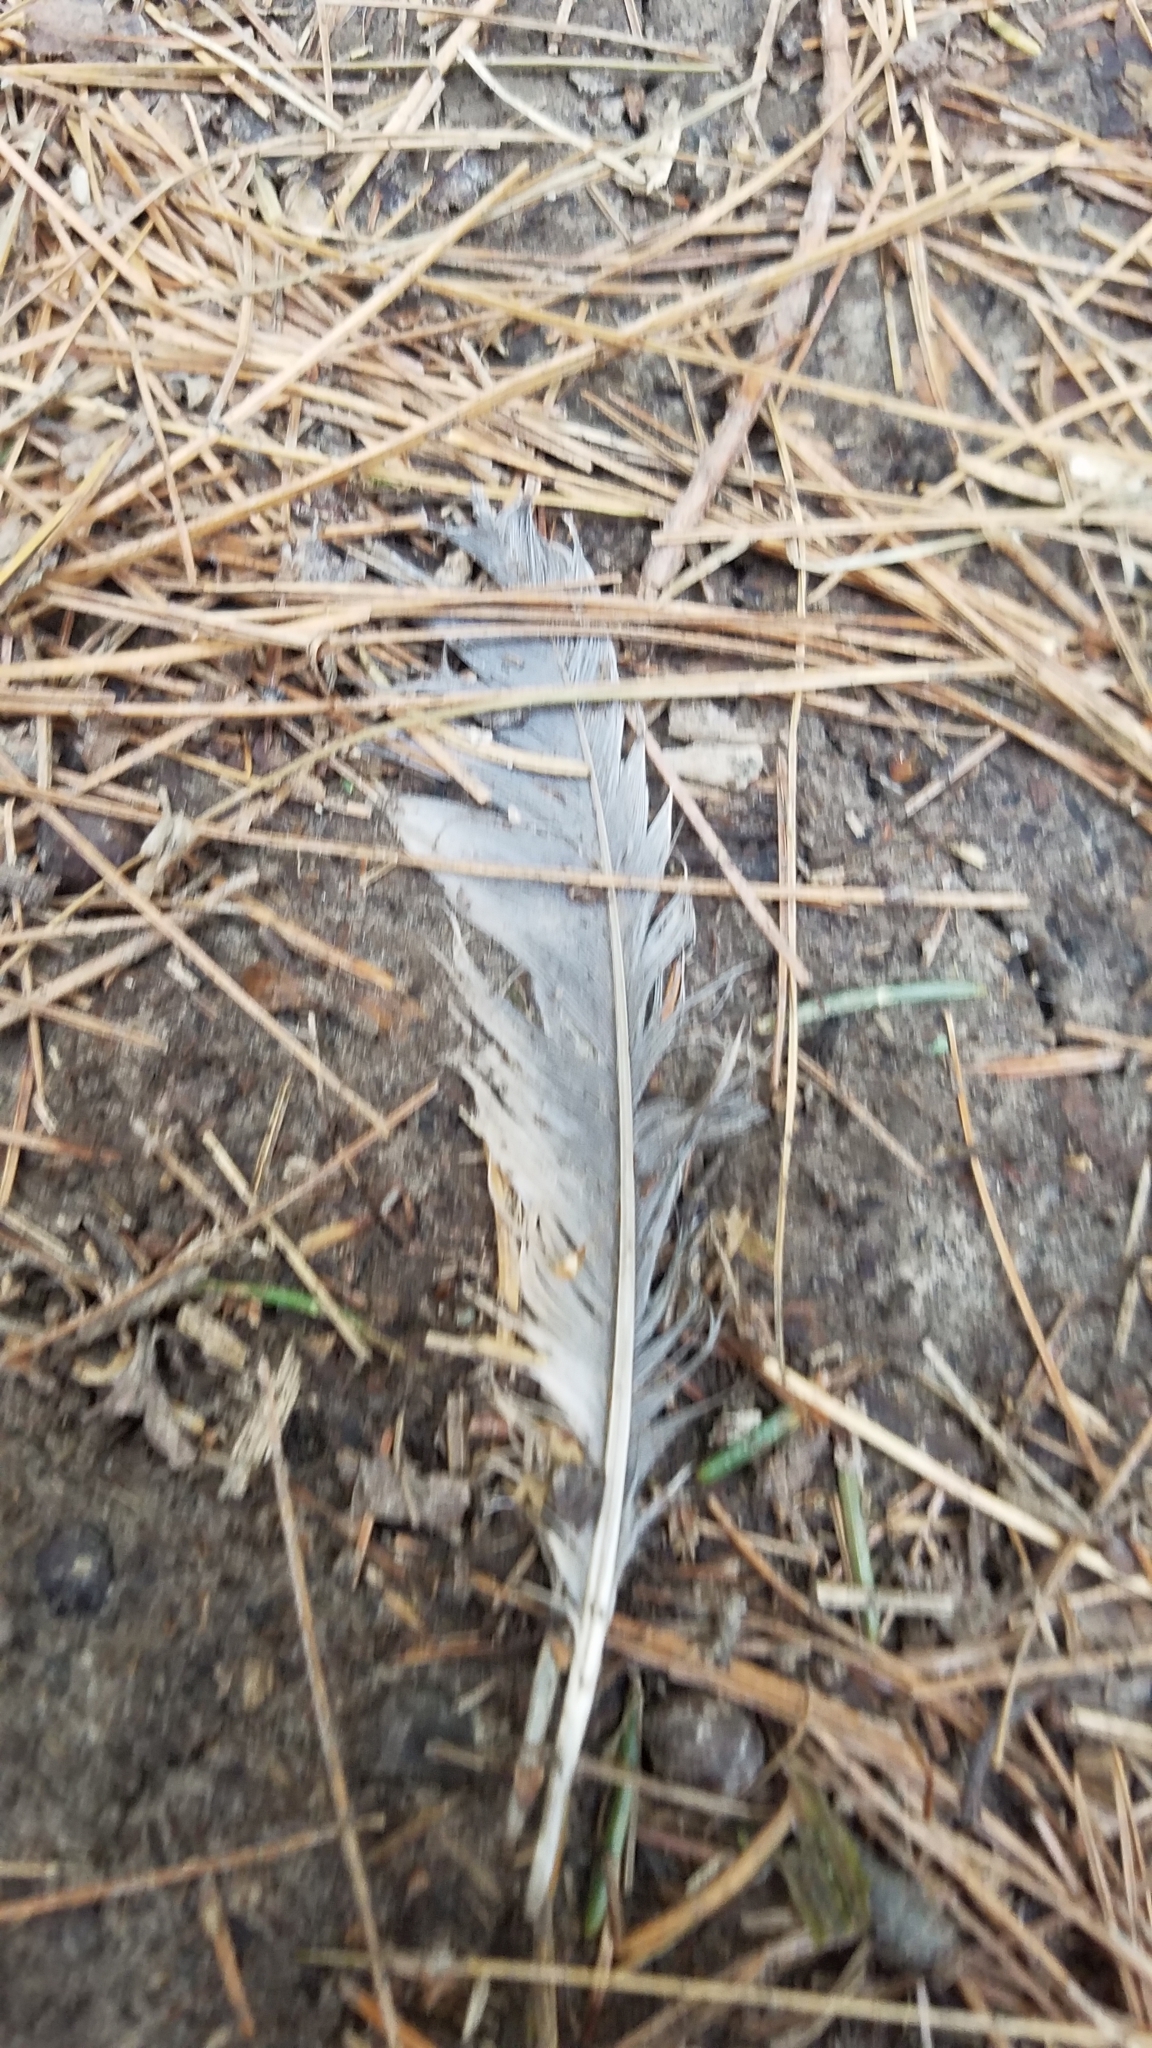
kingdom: Animalia
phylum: Chordata
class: Aves
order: Passeriformes
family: Turdidae
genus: Turdus
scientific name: Turdus migratorius
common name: American robin
